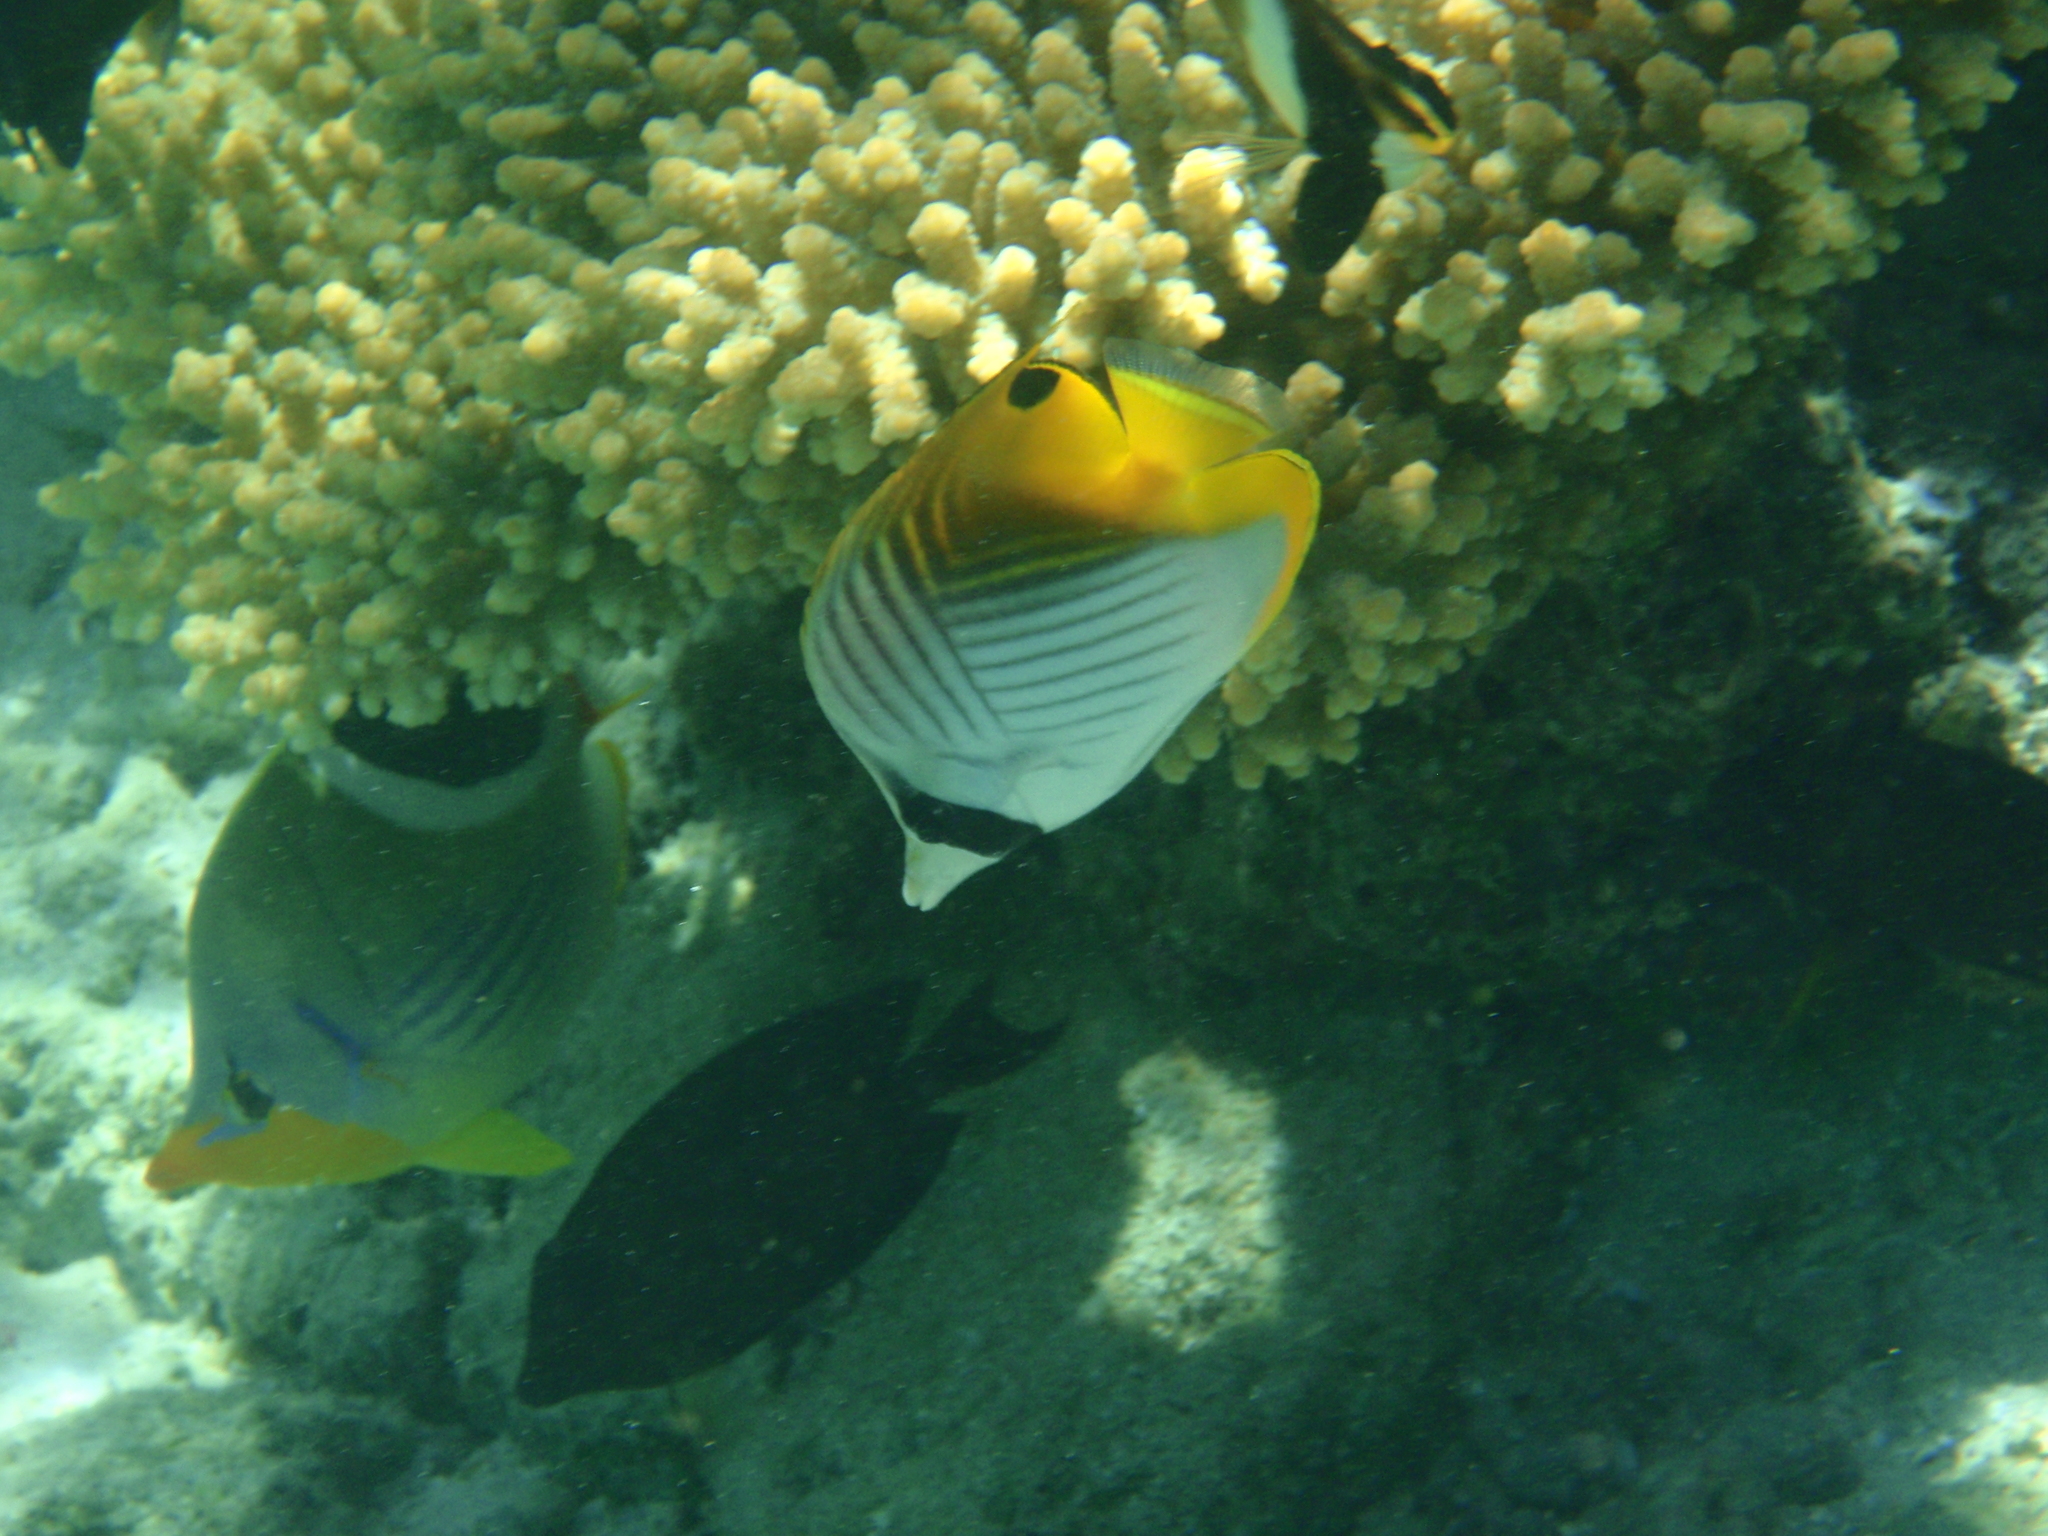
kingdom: Animalia
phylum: Chordata
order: Perciformes
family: Chaetodontidae
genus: Chaetodon
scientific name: Chaetodon auriga
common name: Threadfin butterflyfish
